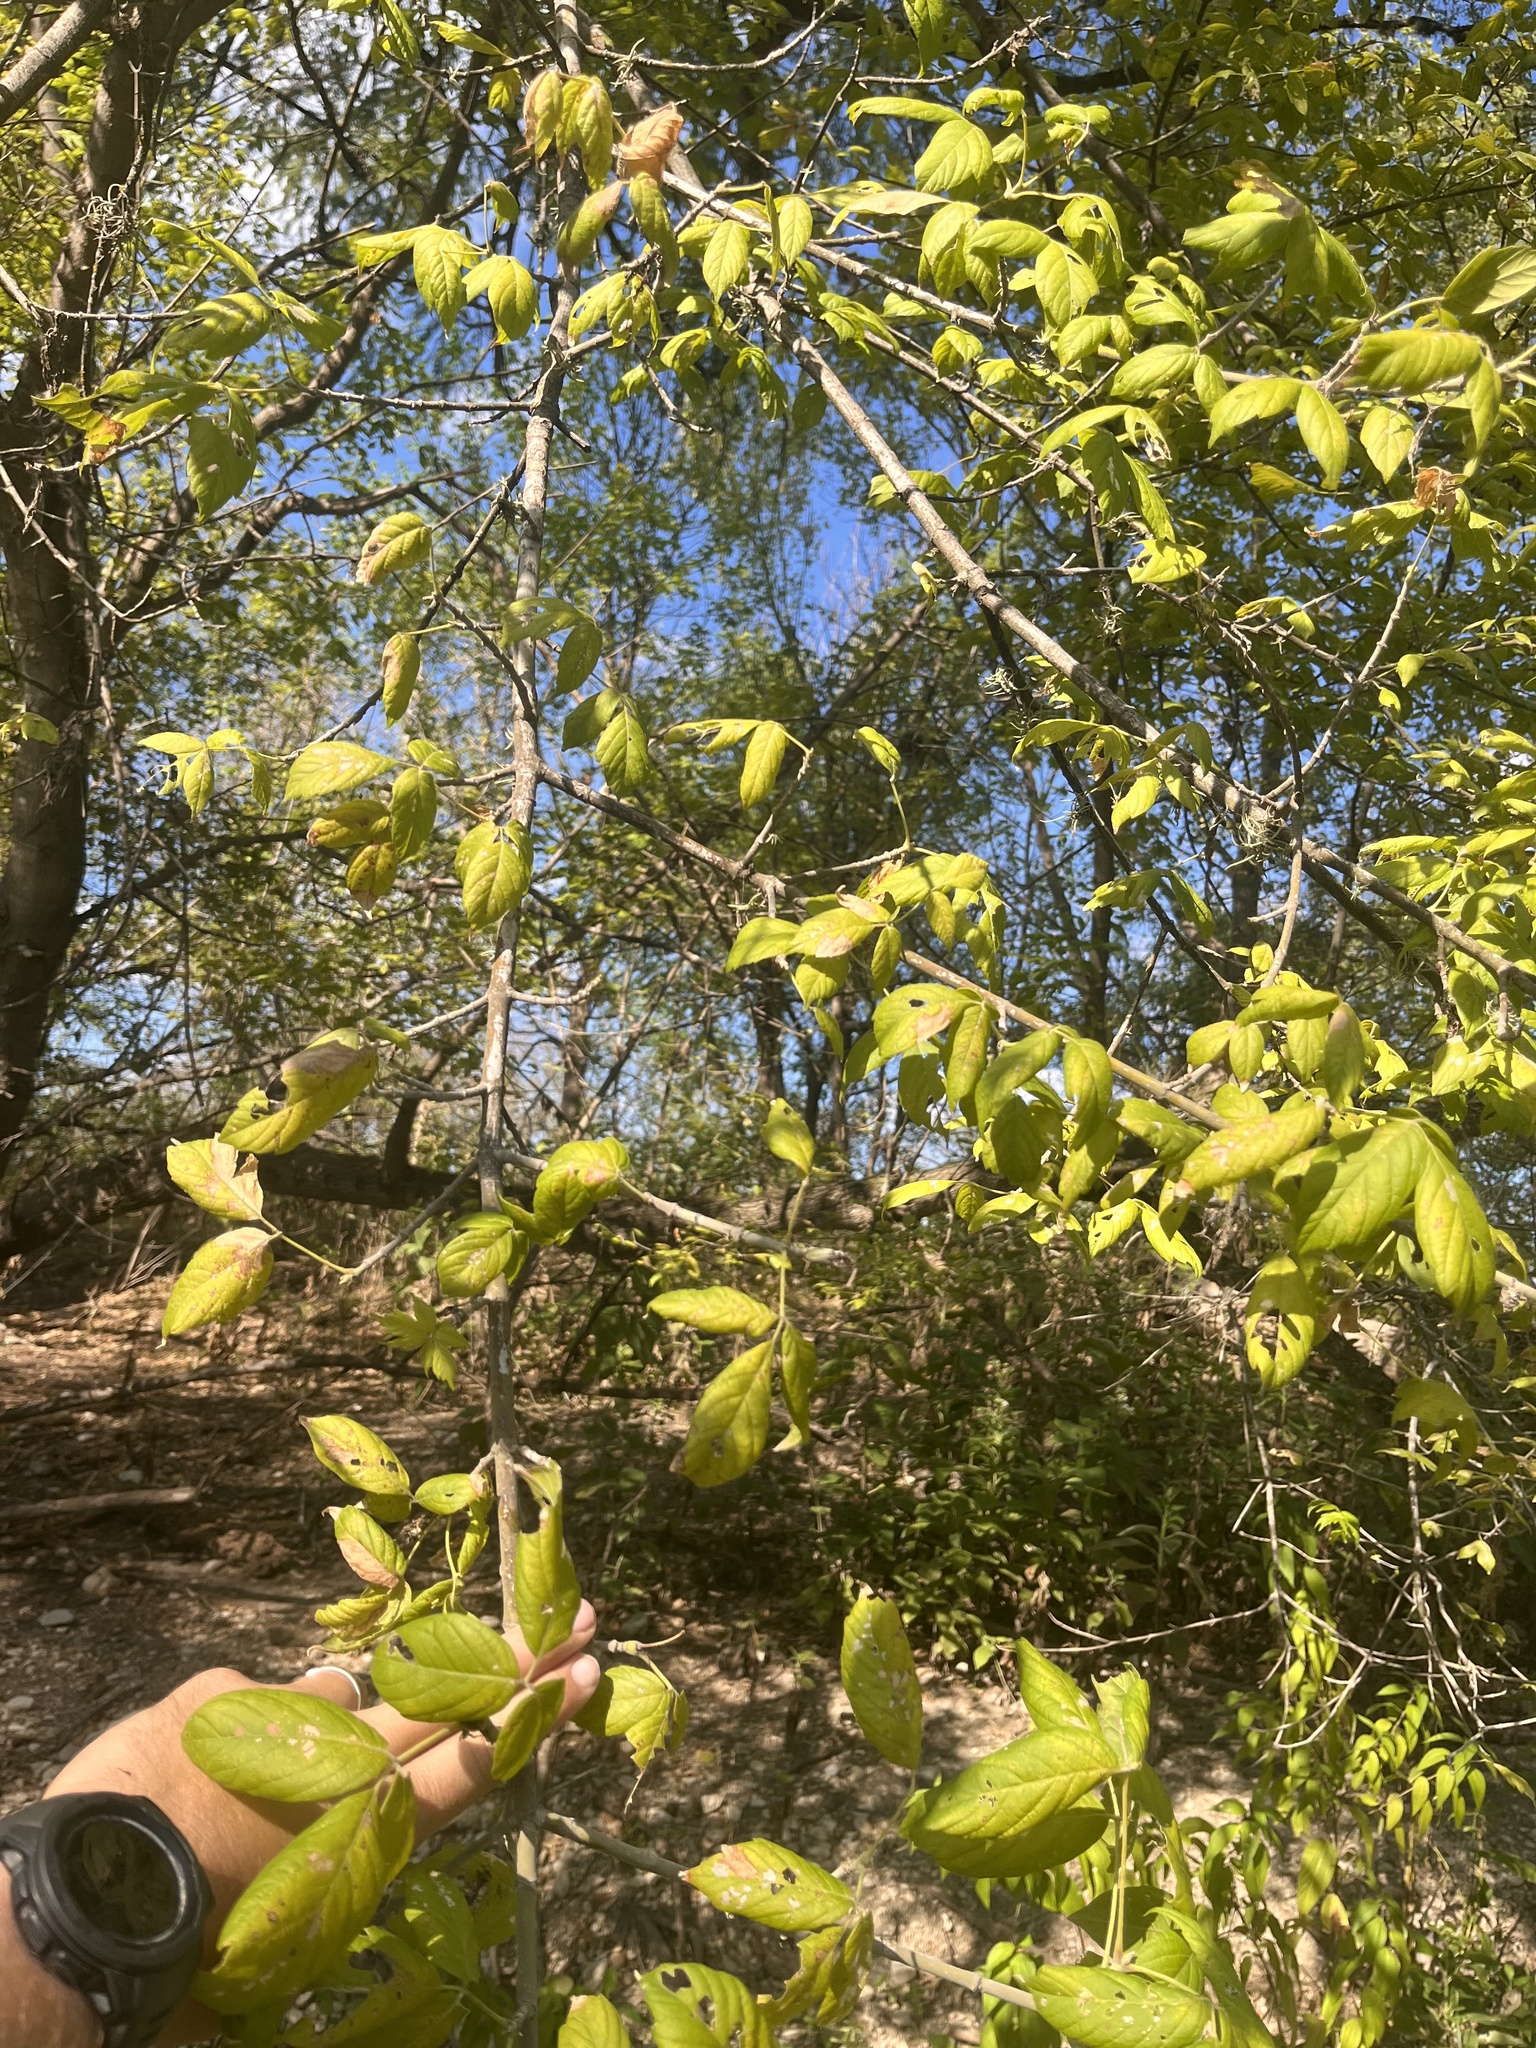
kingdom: Plantae
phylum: Tracheophyta
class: Magnoliopsida
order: Sapindales
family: Sapindaceae
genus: Acer
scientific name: Acer negundo
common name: Ashleaf maple
